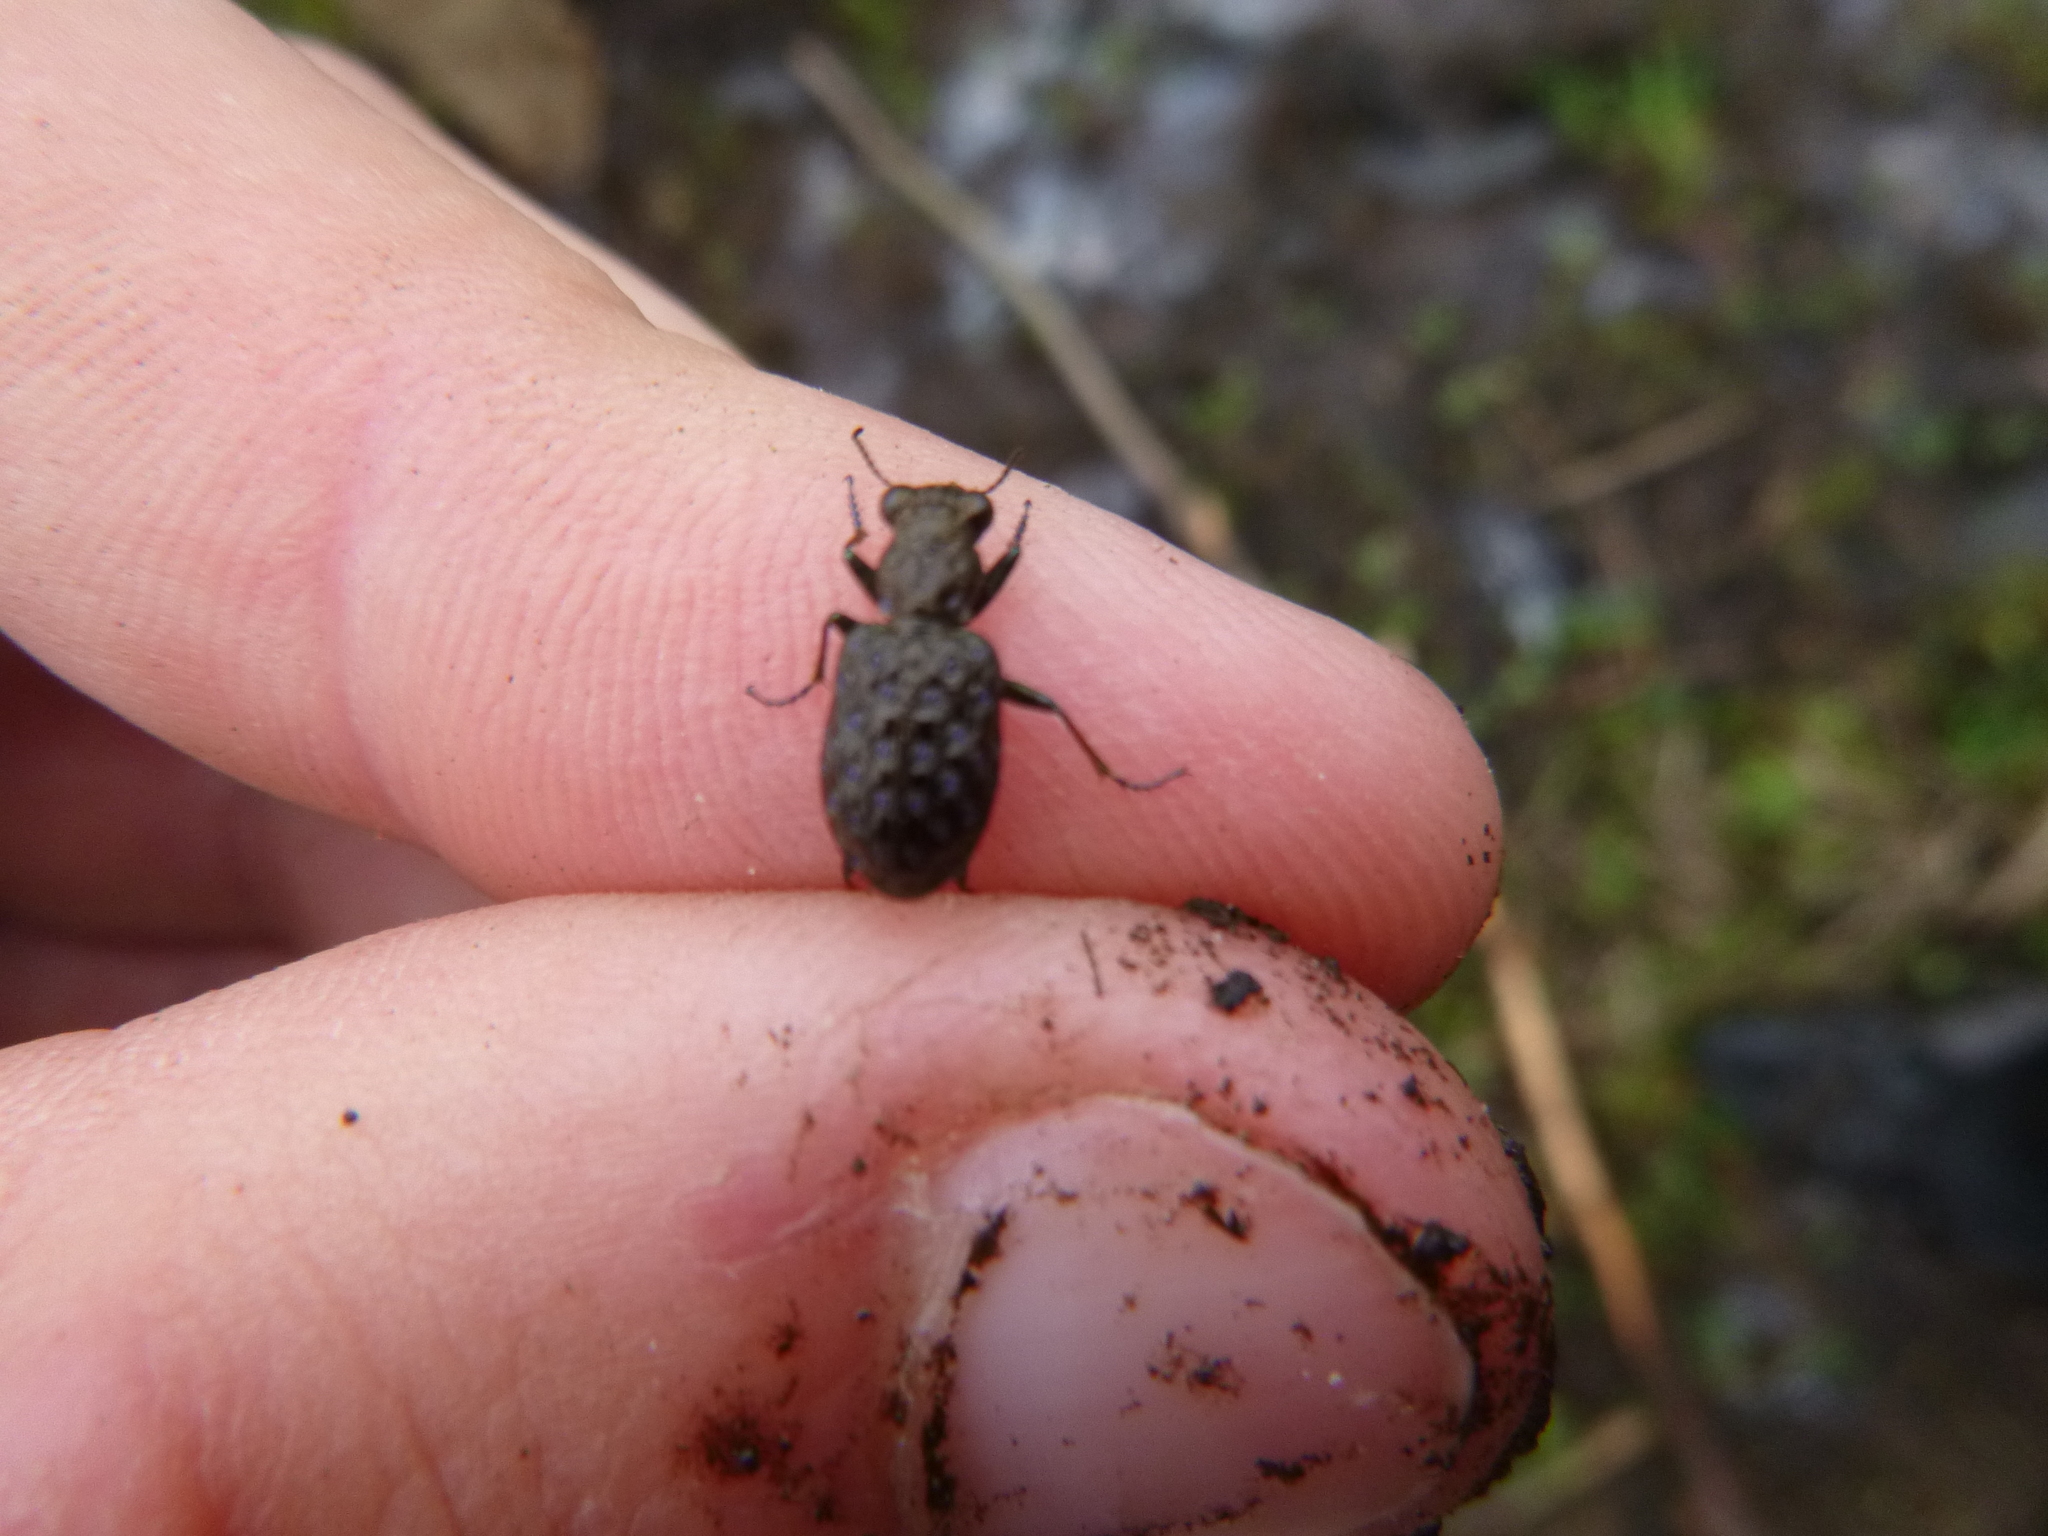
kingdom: Animalia
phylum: Arthropoda
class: Insecta
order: Coleoptera
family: Carabidae
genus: Elaphrus
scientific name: Elaphrus cupreus
